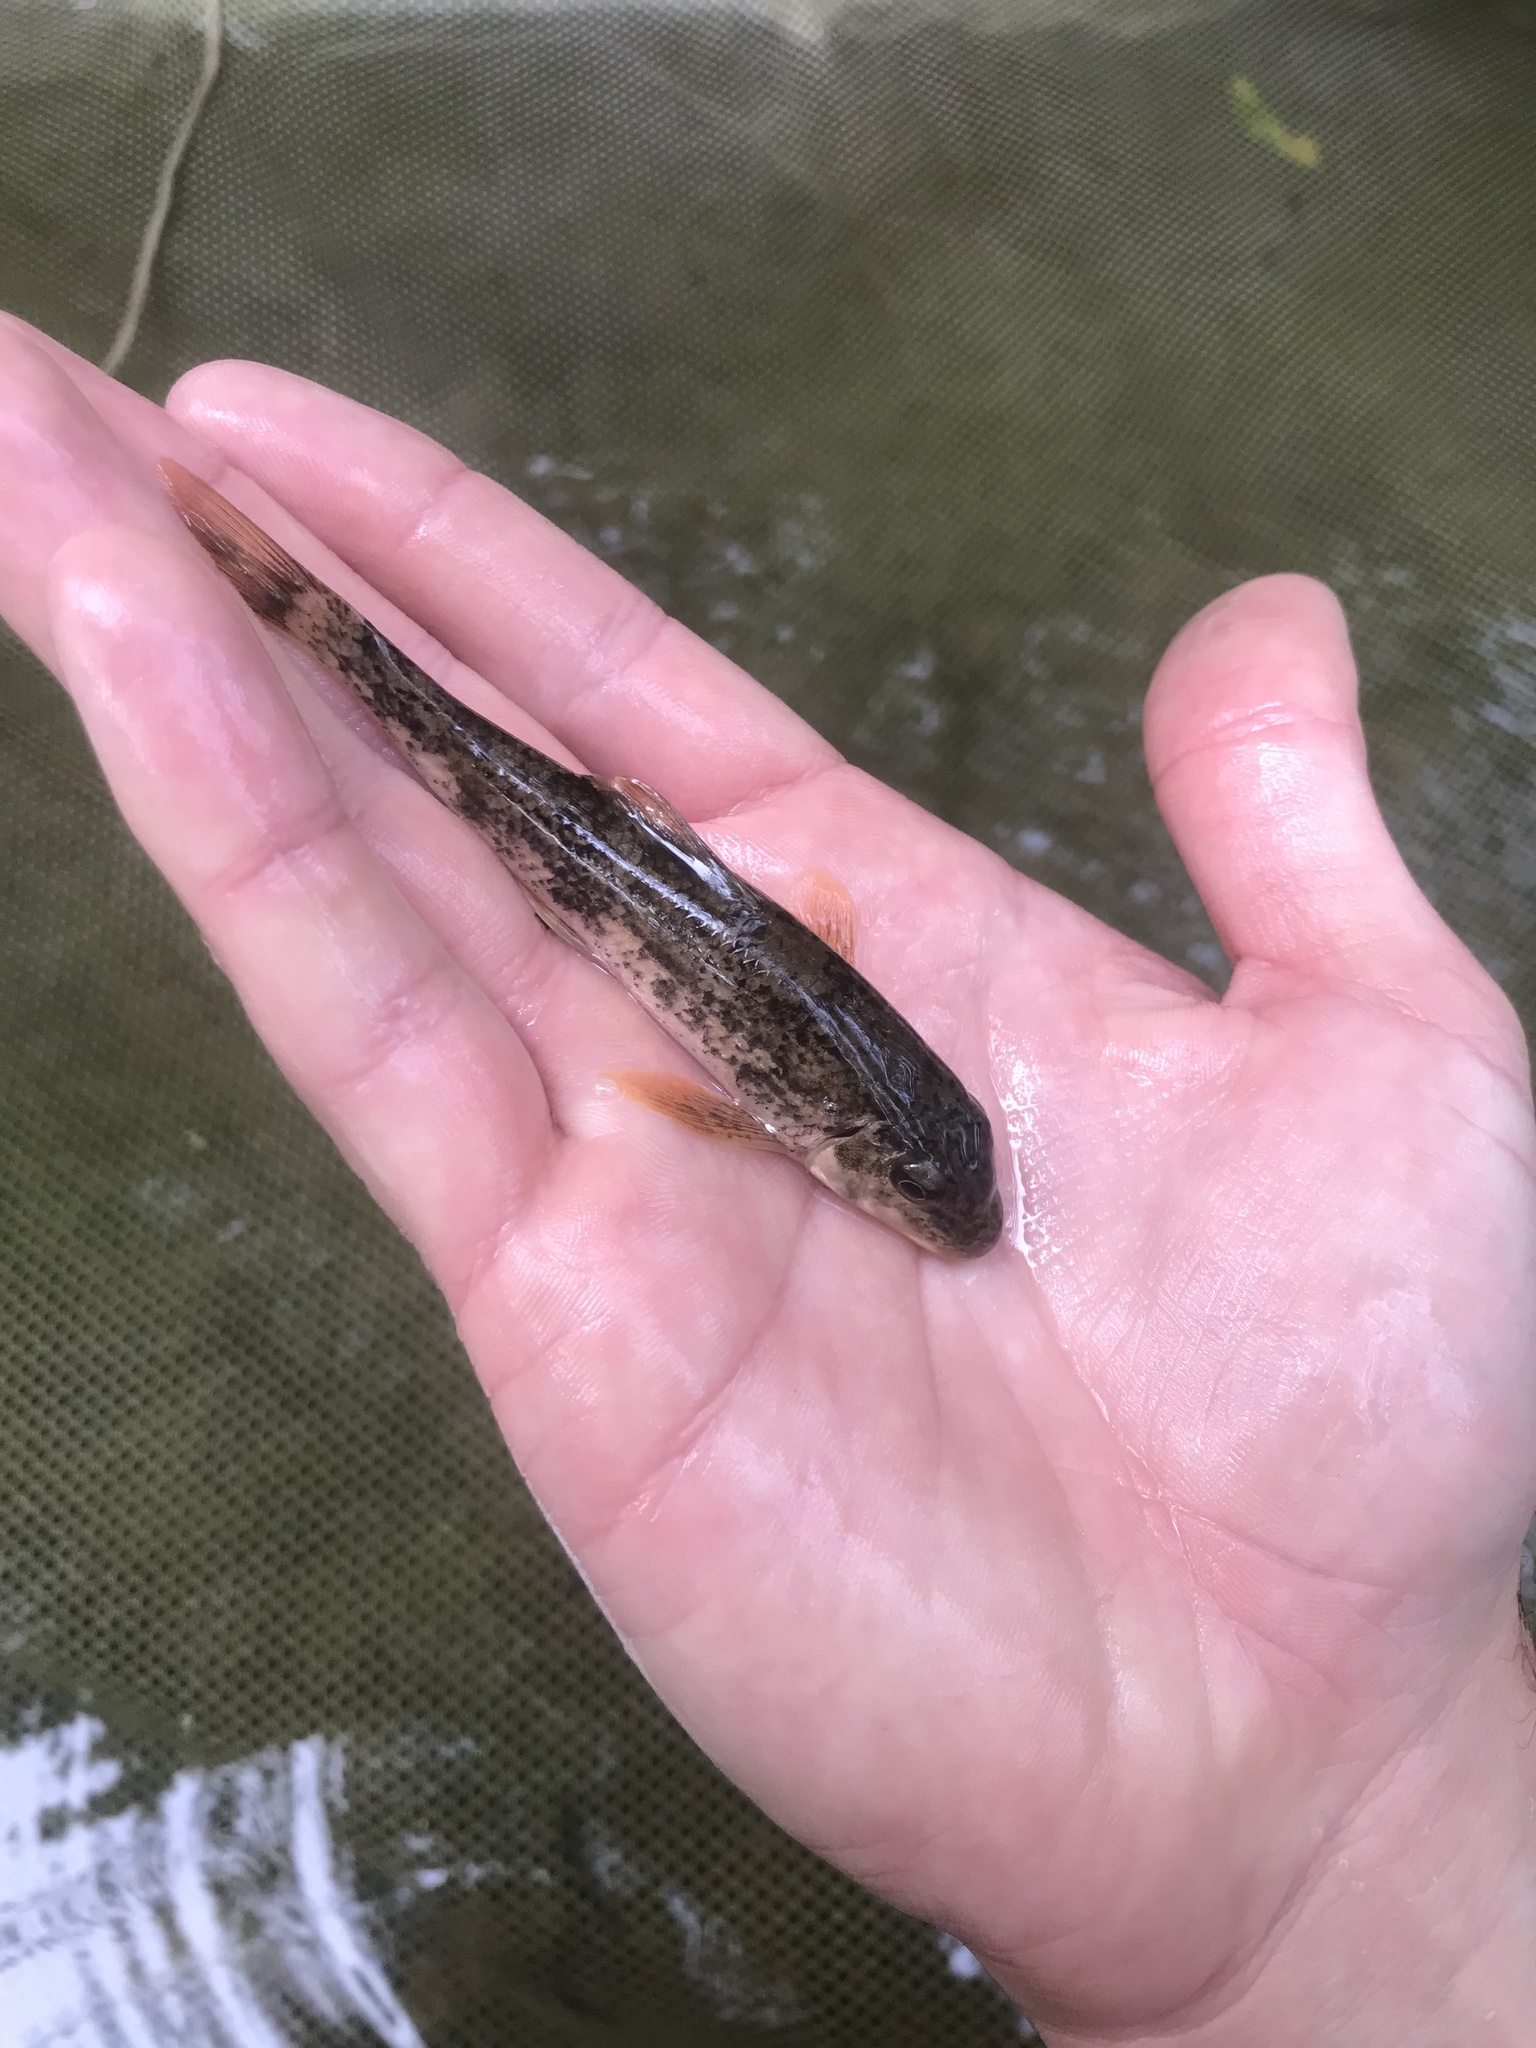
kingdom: Animalia
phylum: Chordata
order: Cypriniformes
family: Catostomidae
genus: Hypentelium
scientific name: Hypentelium nigricans
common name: Northern hog sucker
